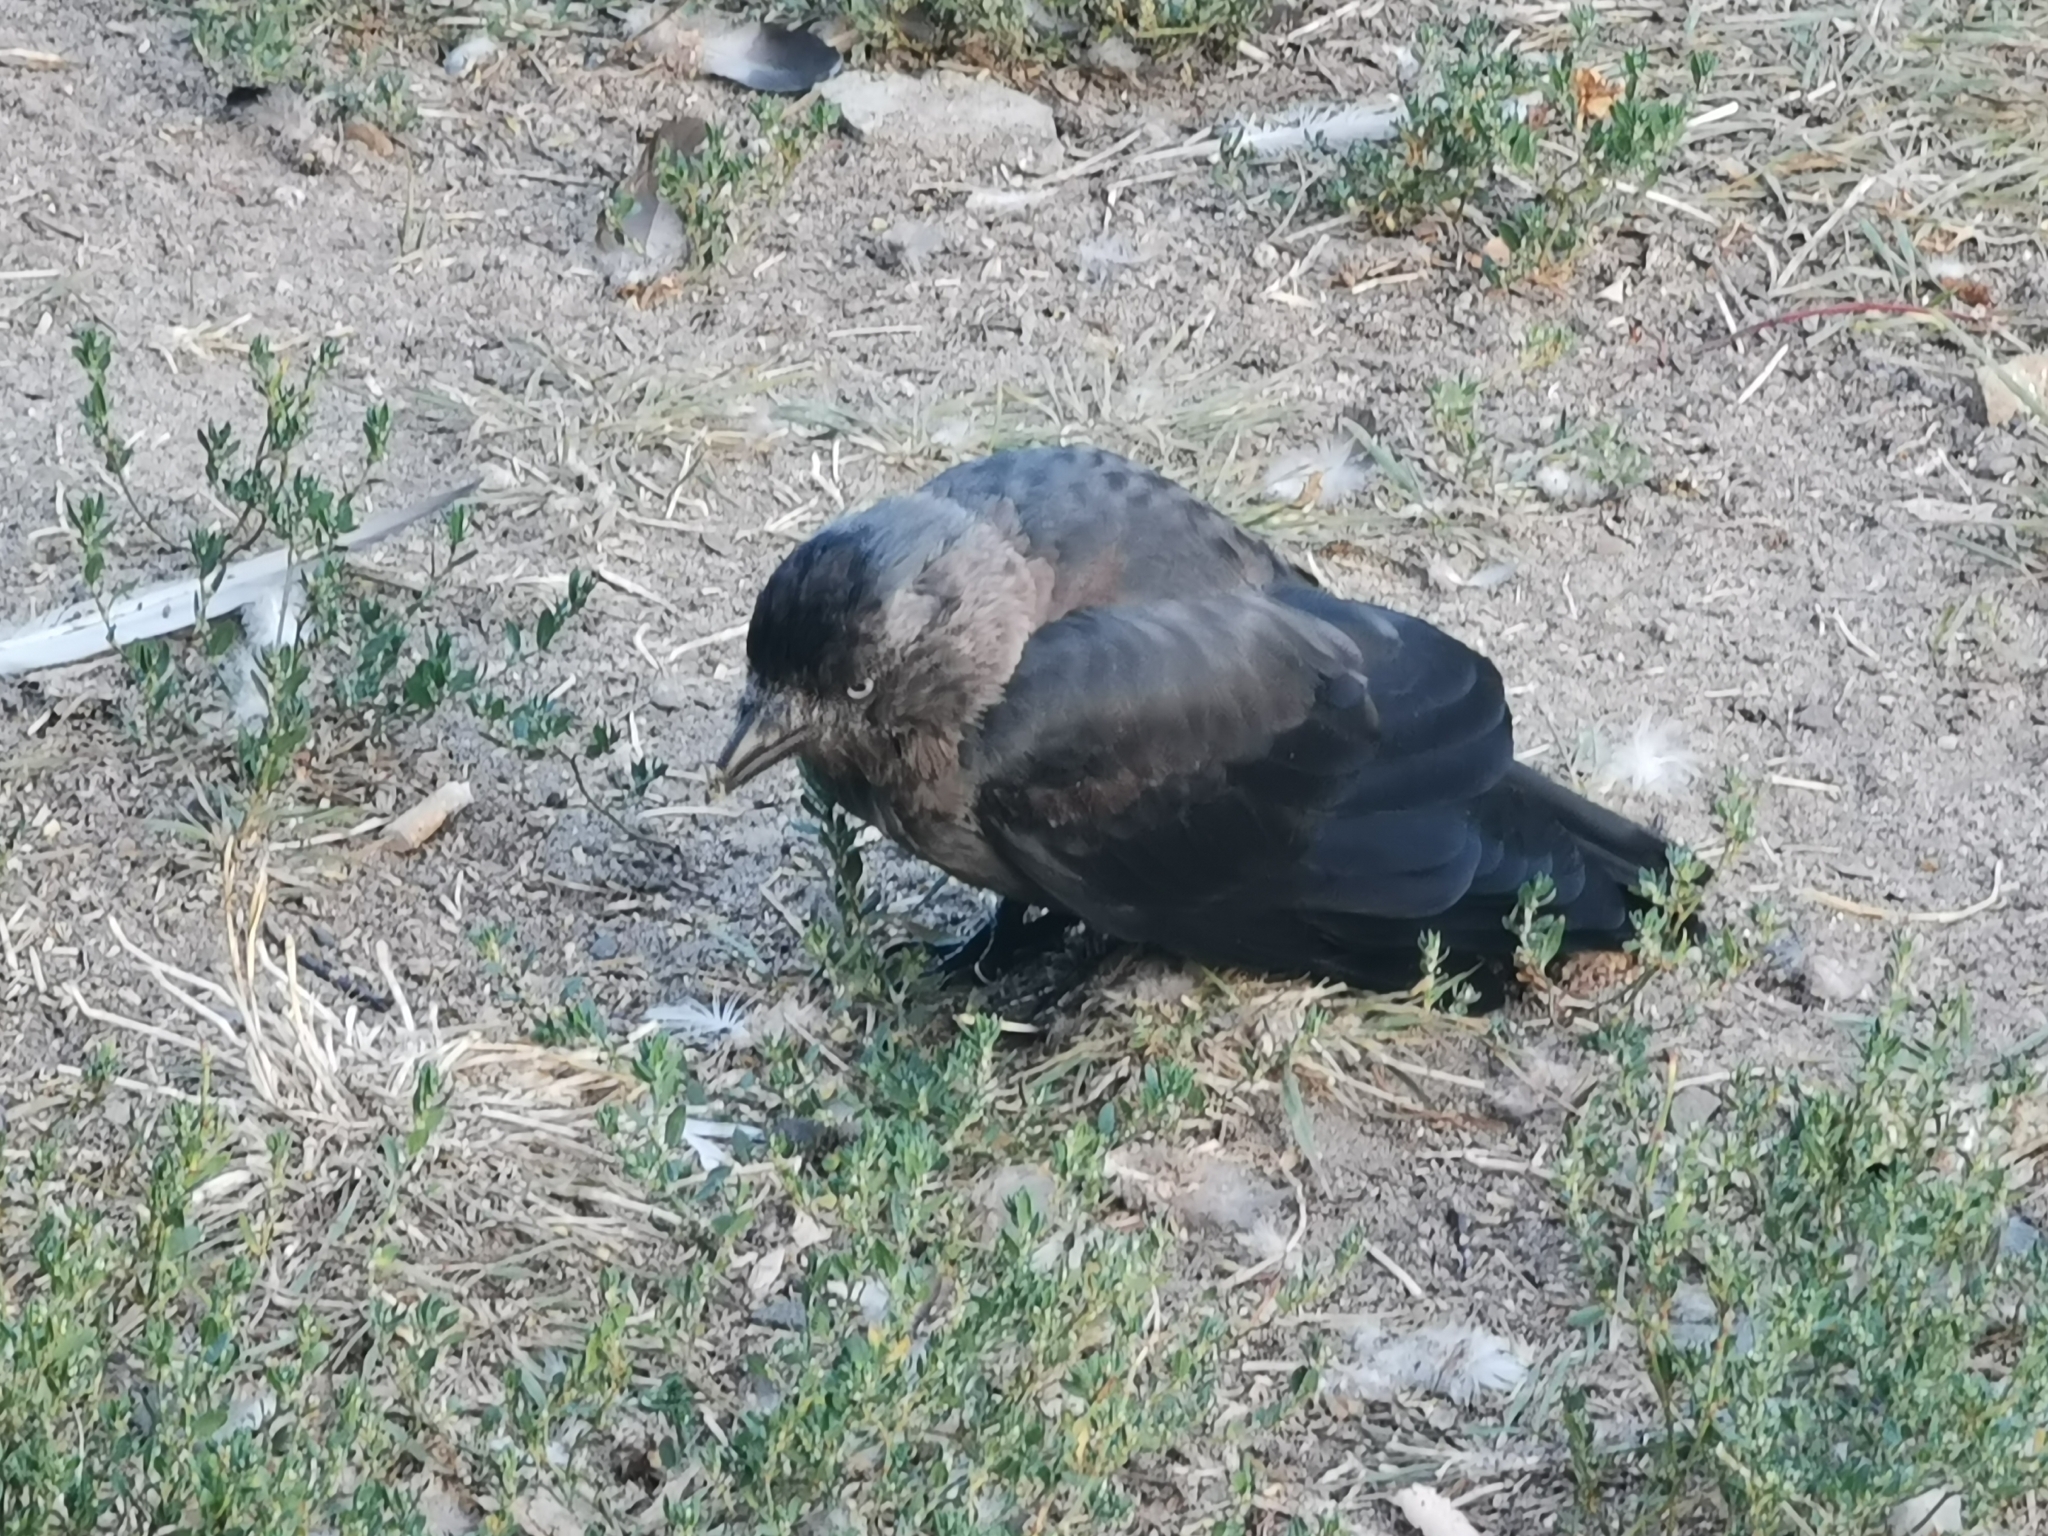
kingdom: Animalia
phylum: Chordata
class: Aves
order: Passeriformes
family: Corvidae
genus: Coloeus
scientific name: Coloeus monedula
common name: Western jackdaw
